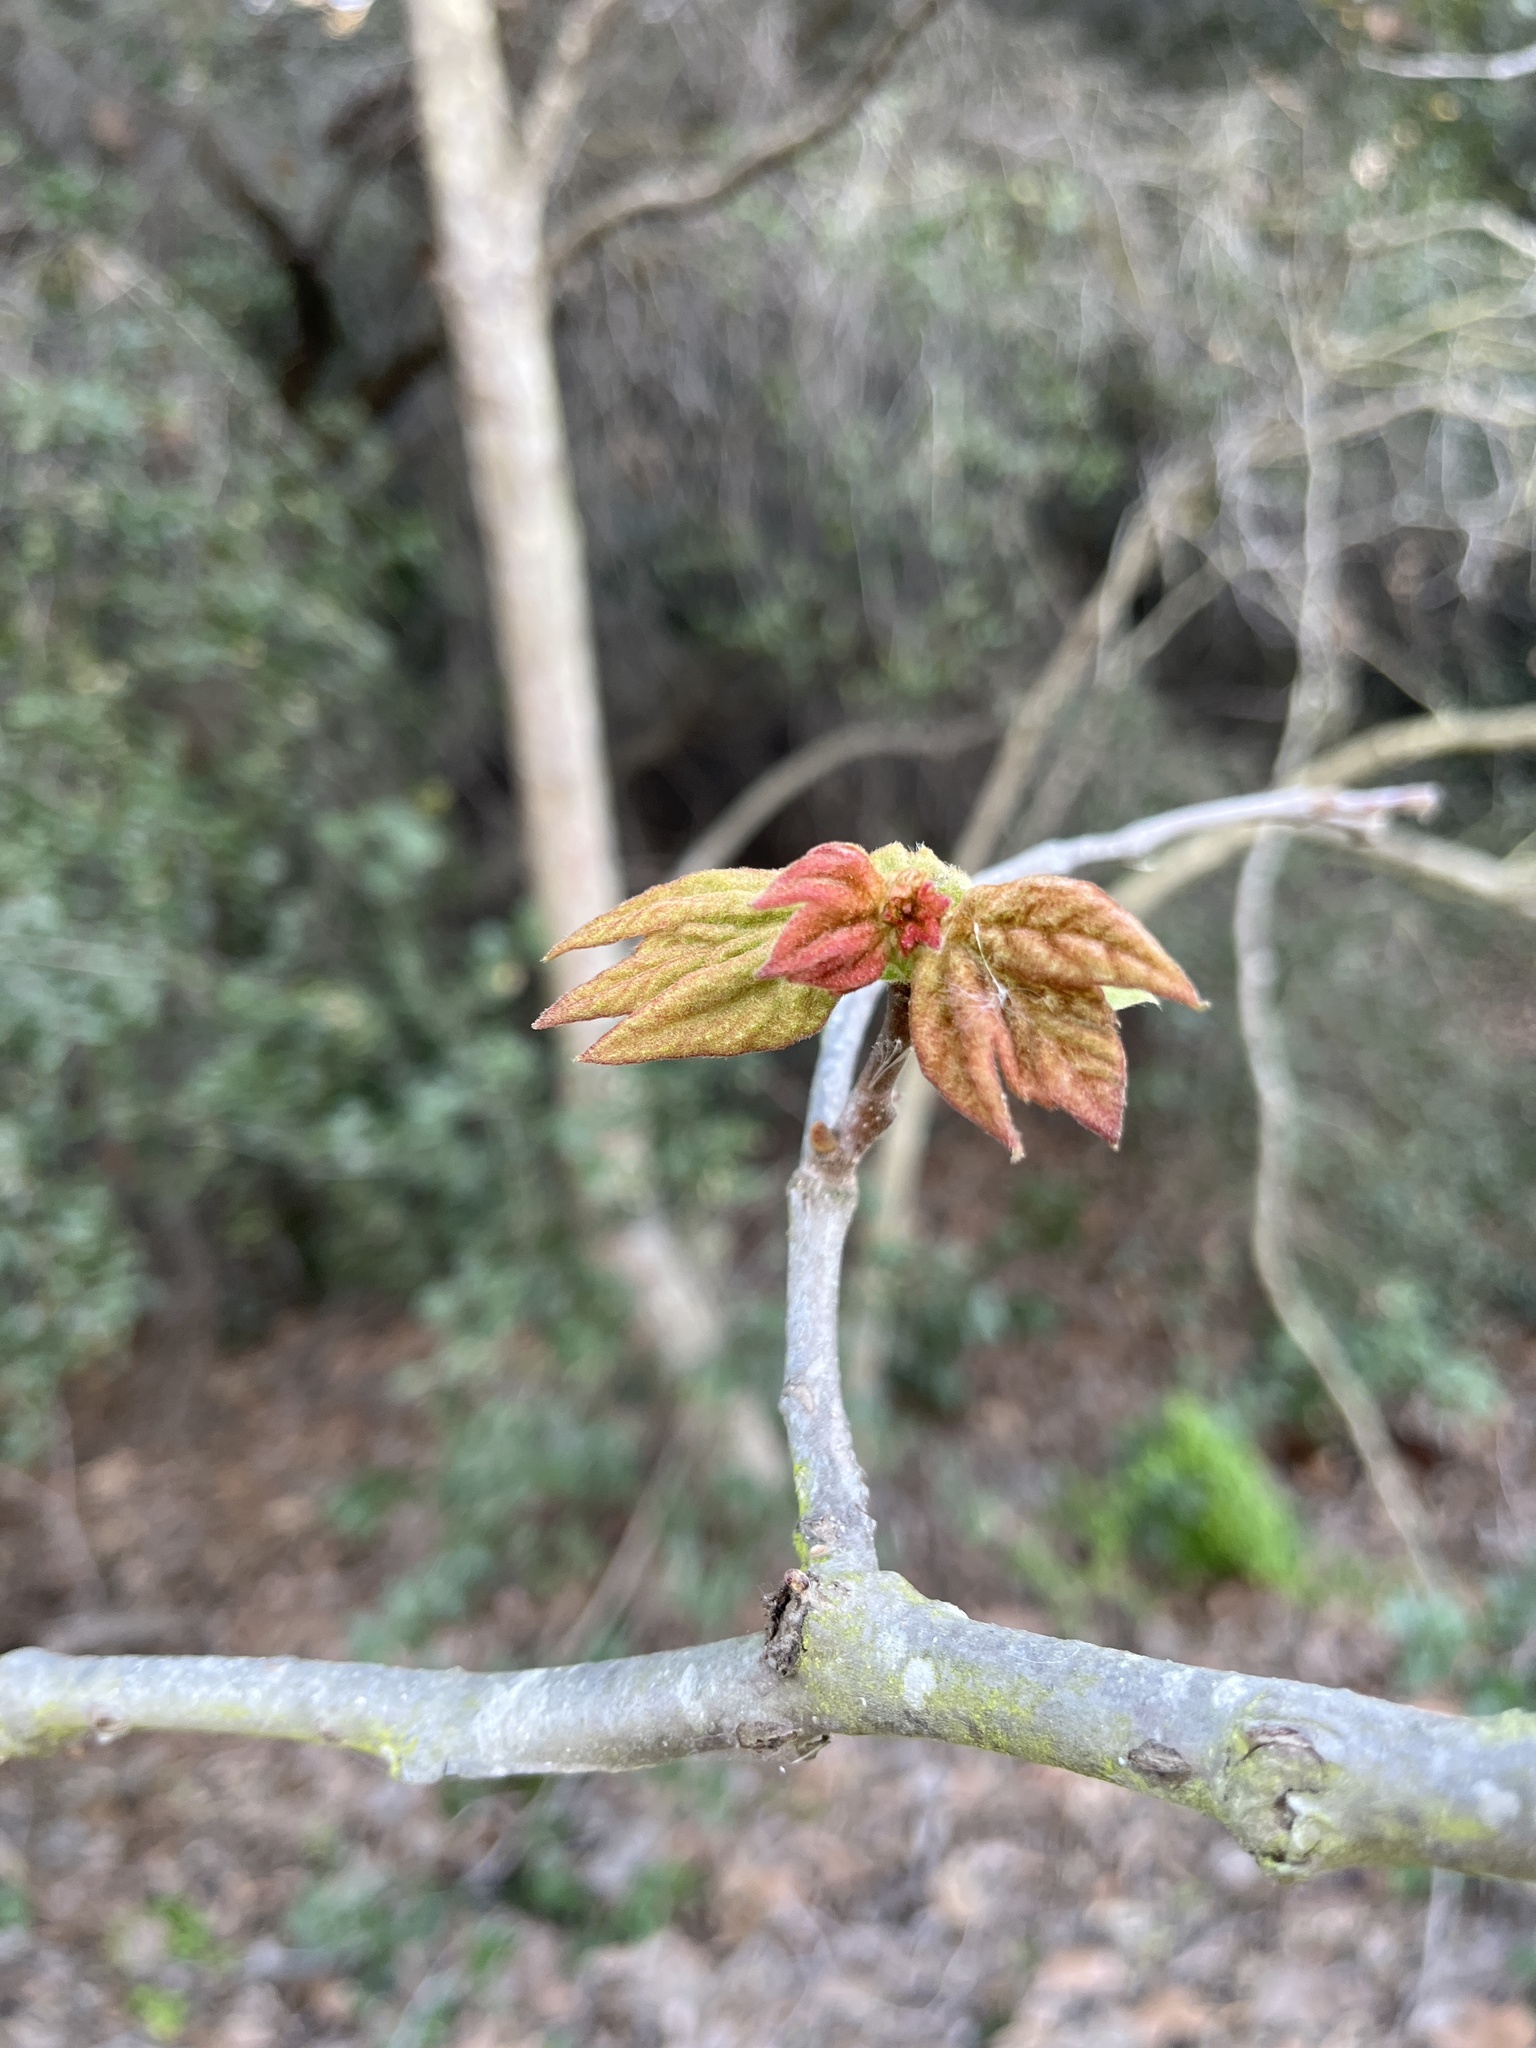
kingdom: Plantae
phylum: Tracheophyta
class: Magnoliopsida
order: Proteales
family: Platanaceae
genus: Platanus
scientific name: Platanus racemosa
